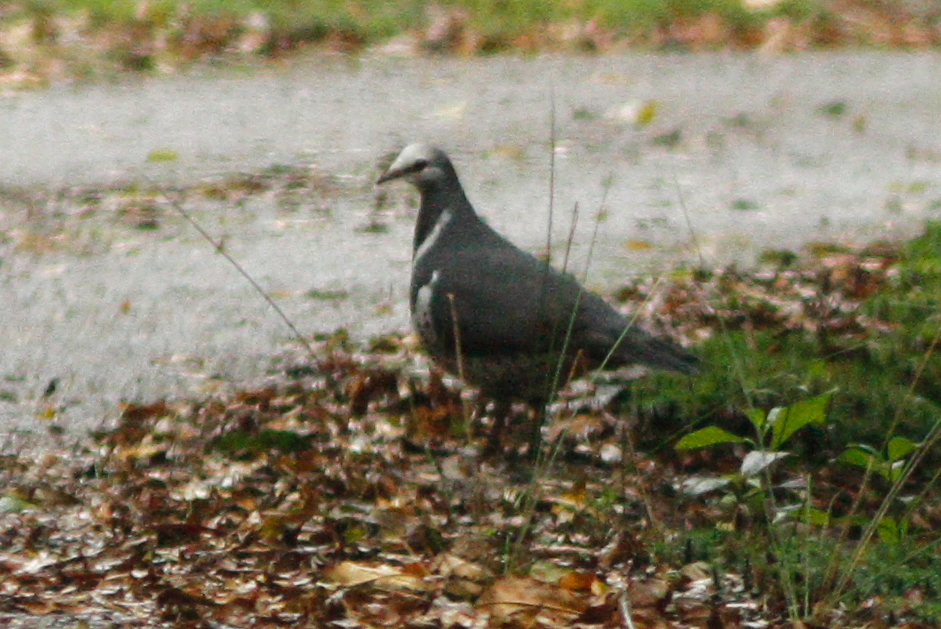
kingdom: Animalia
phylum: Chordata
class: Aves
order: Columbiformes
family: Columbidae
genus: Leucosarcia
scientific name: Leucosarcia melanoleuca
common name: Wonga pigeon
